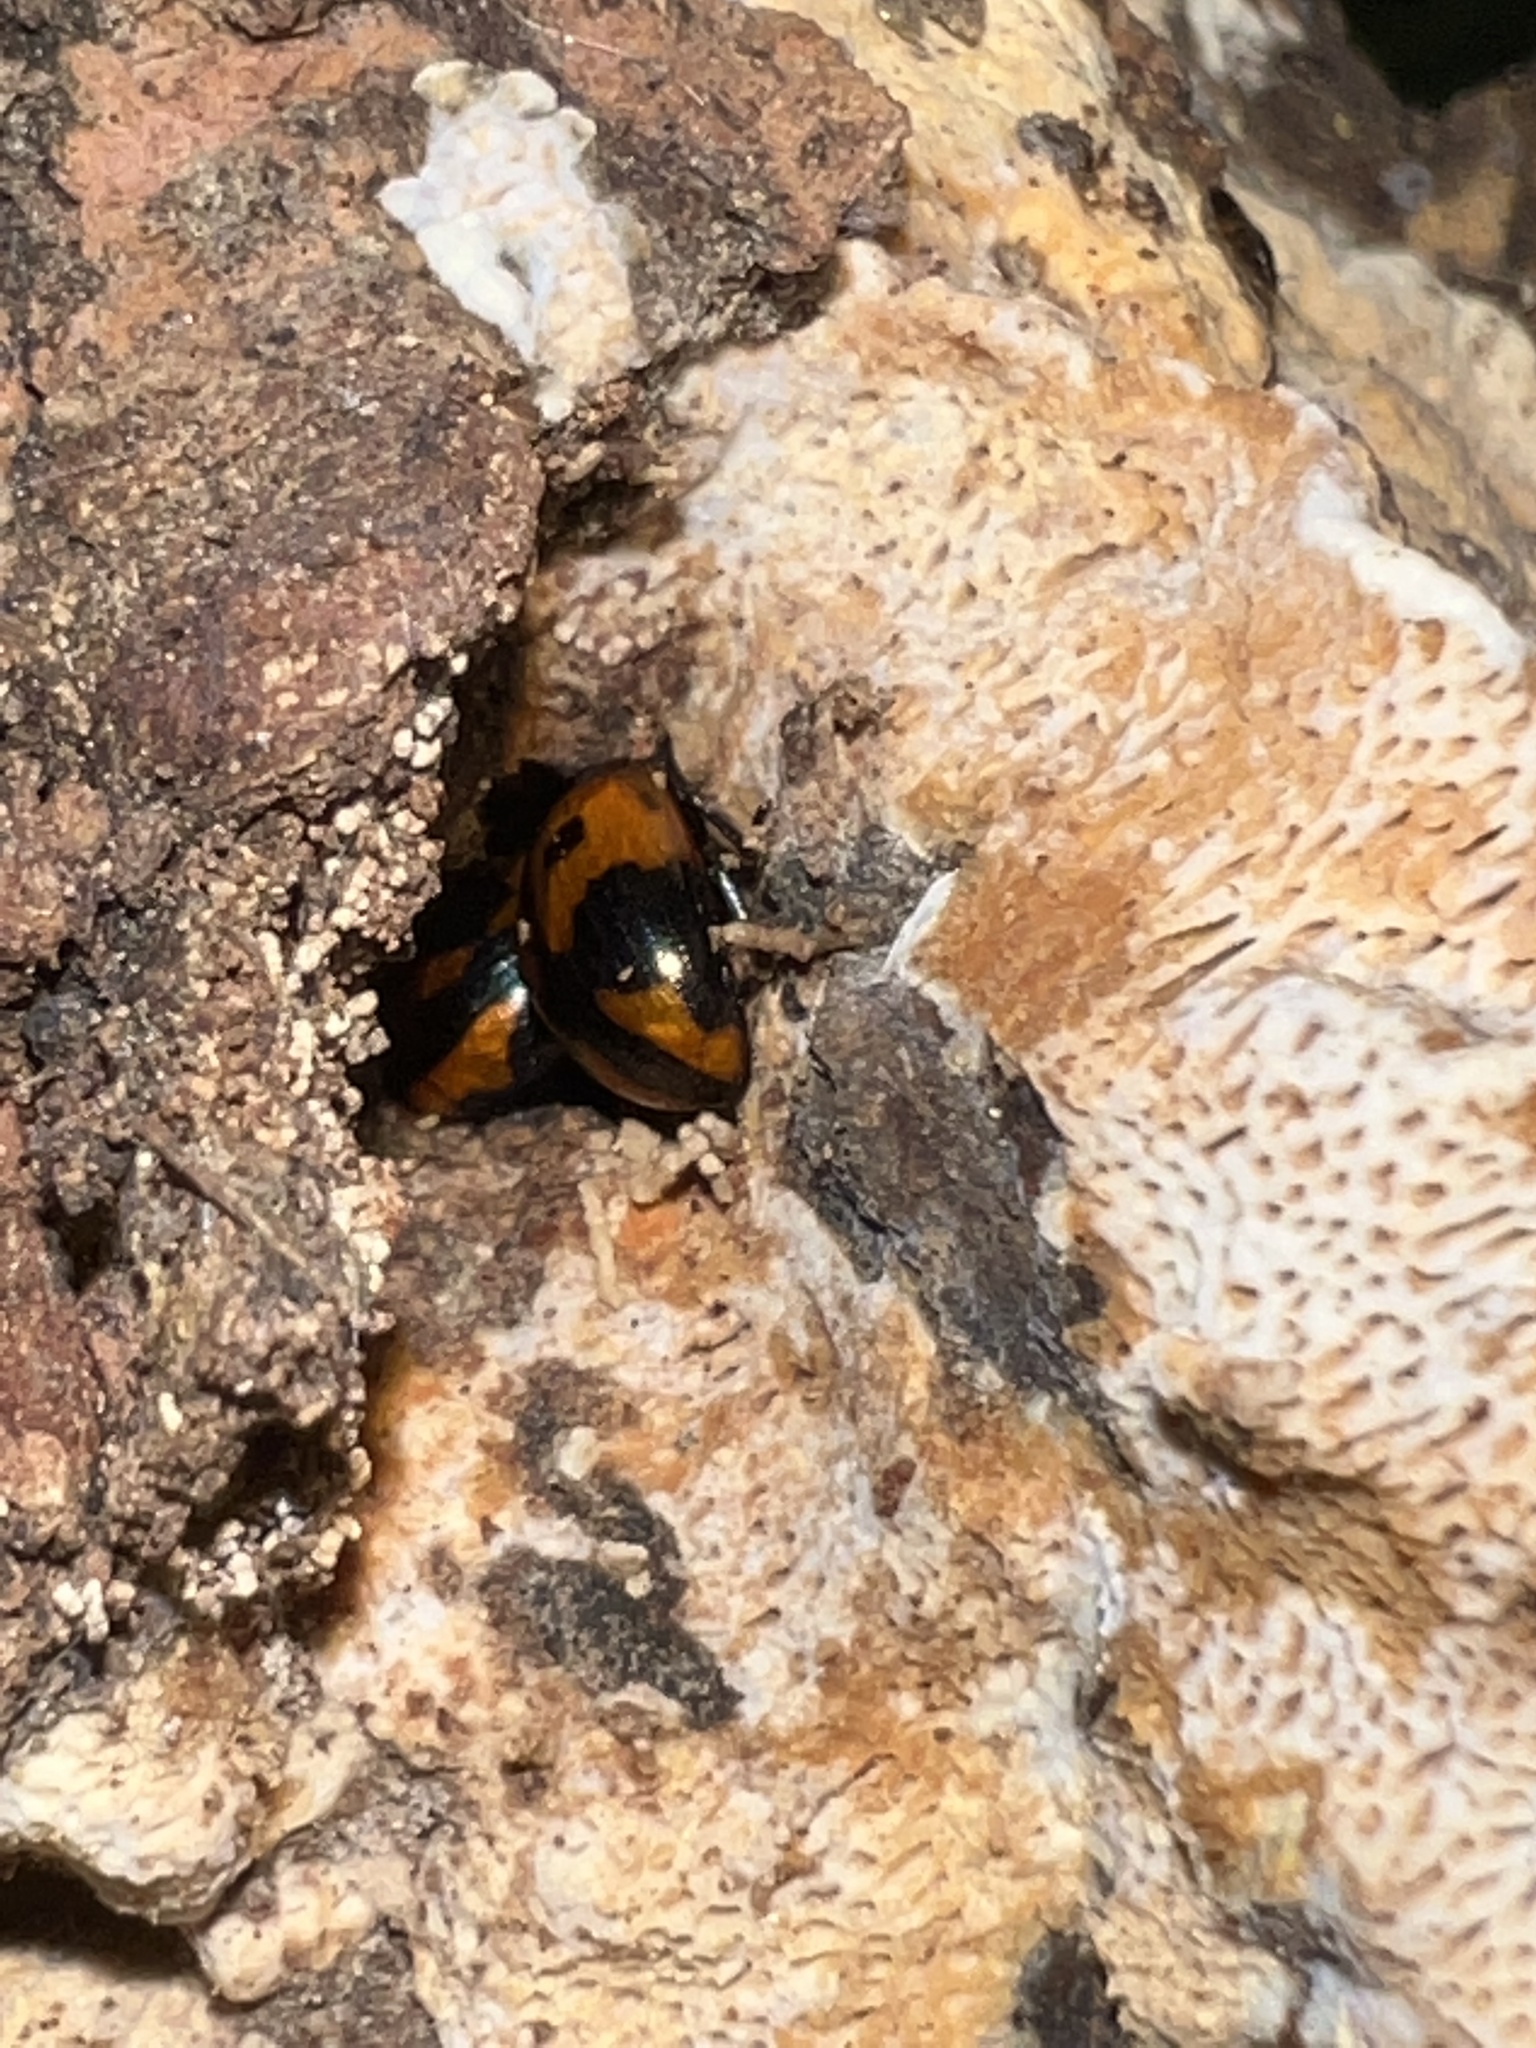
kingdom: Animalia
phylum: Arthropoda
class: Insecta
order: Coleoptera
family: Tenebrionidae
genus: Diaperis
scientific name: Diaperis maculata
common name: Darkling beetle
